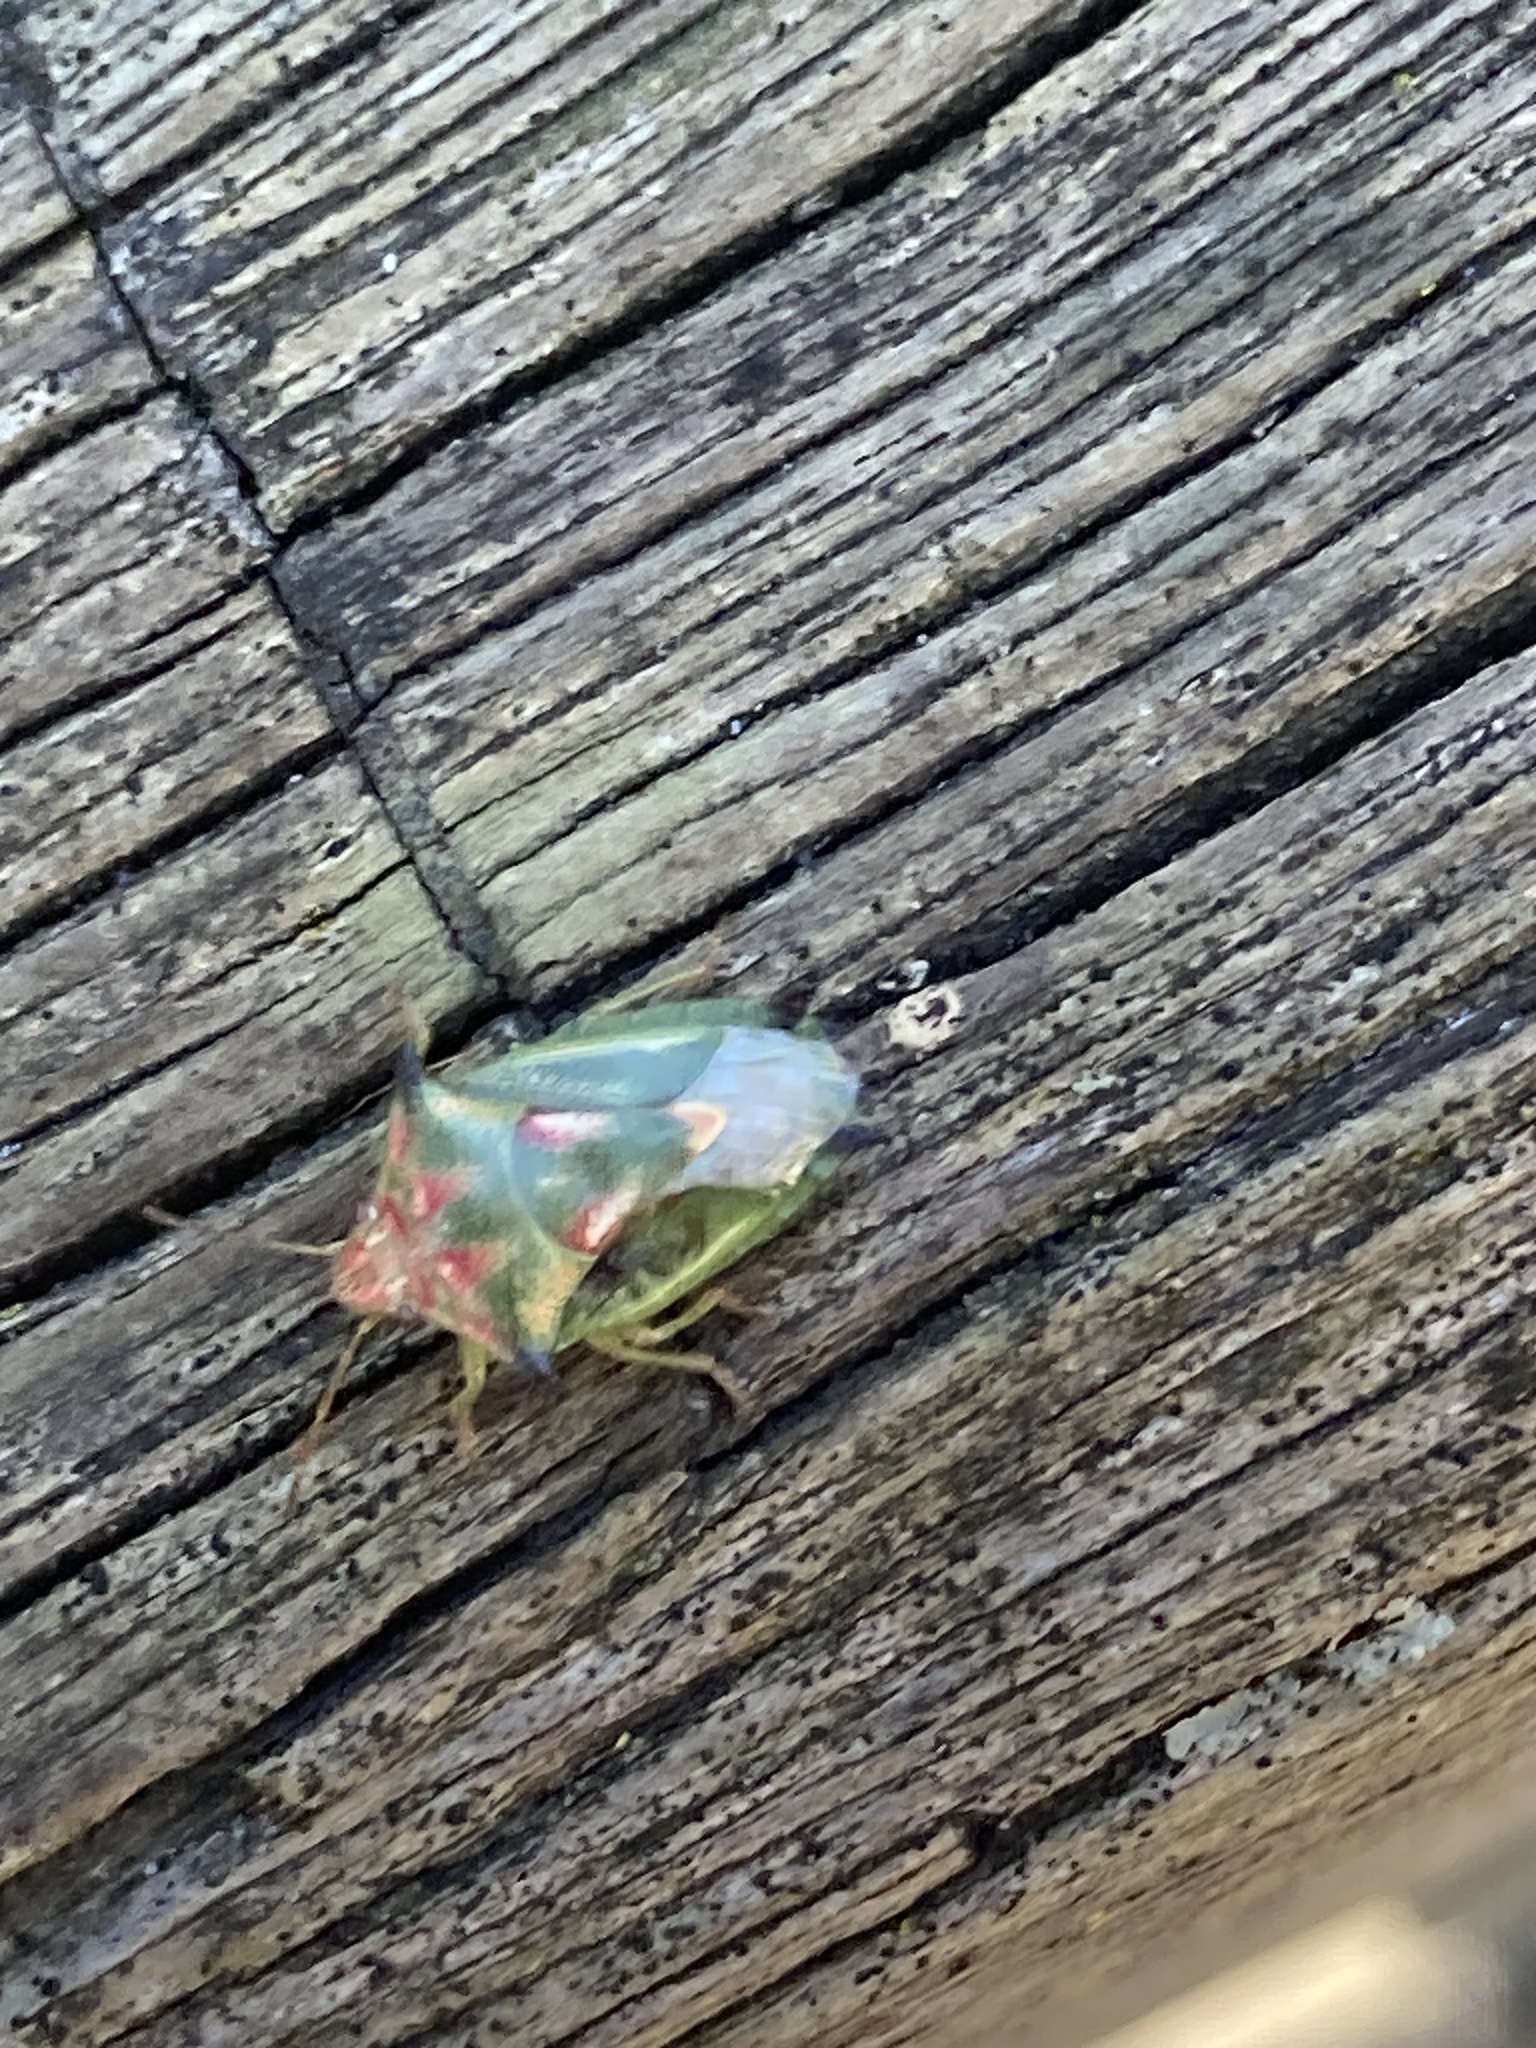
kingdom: Animalia
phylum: Arthropoda
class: Insecta
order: Hemiptera
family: Pentatomidae
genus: Morna
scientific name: Morna
